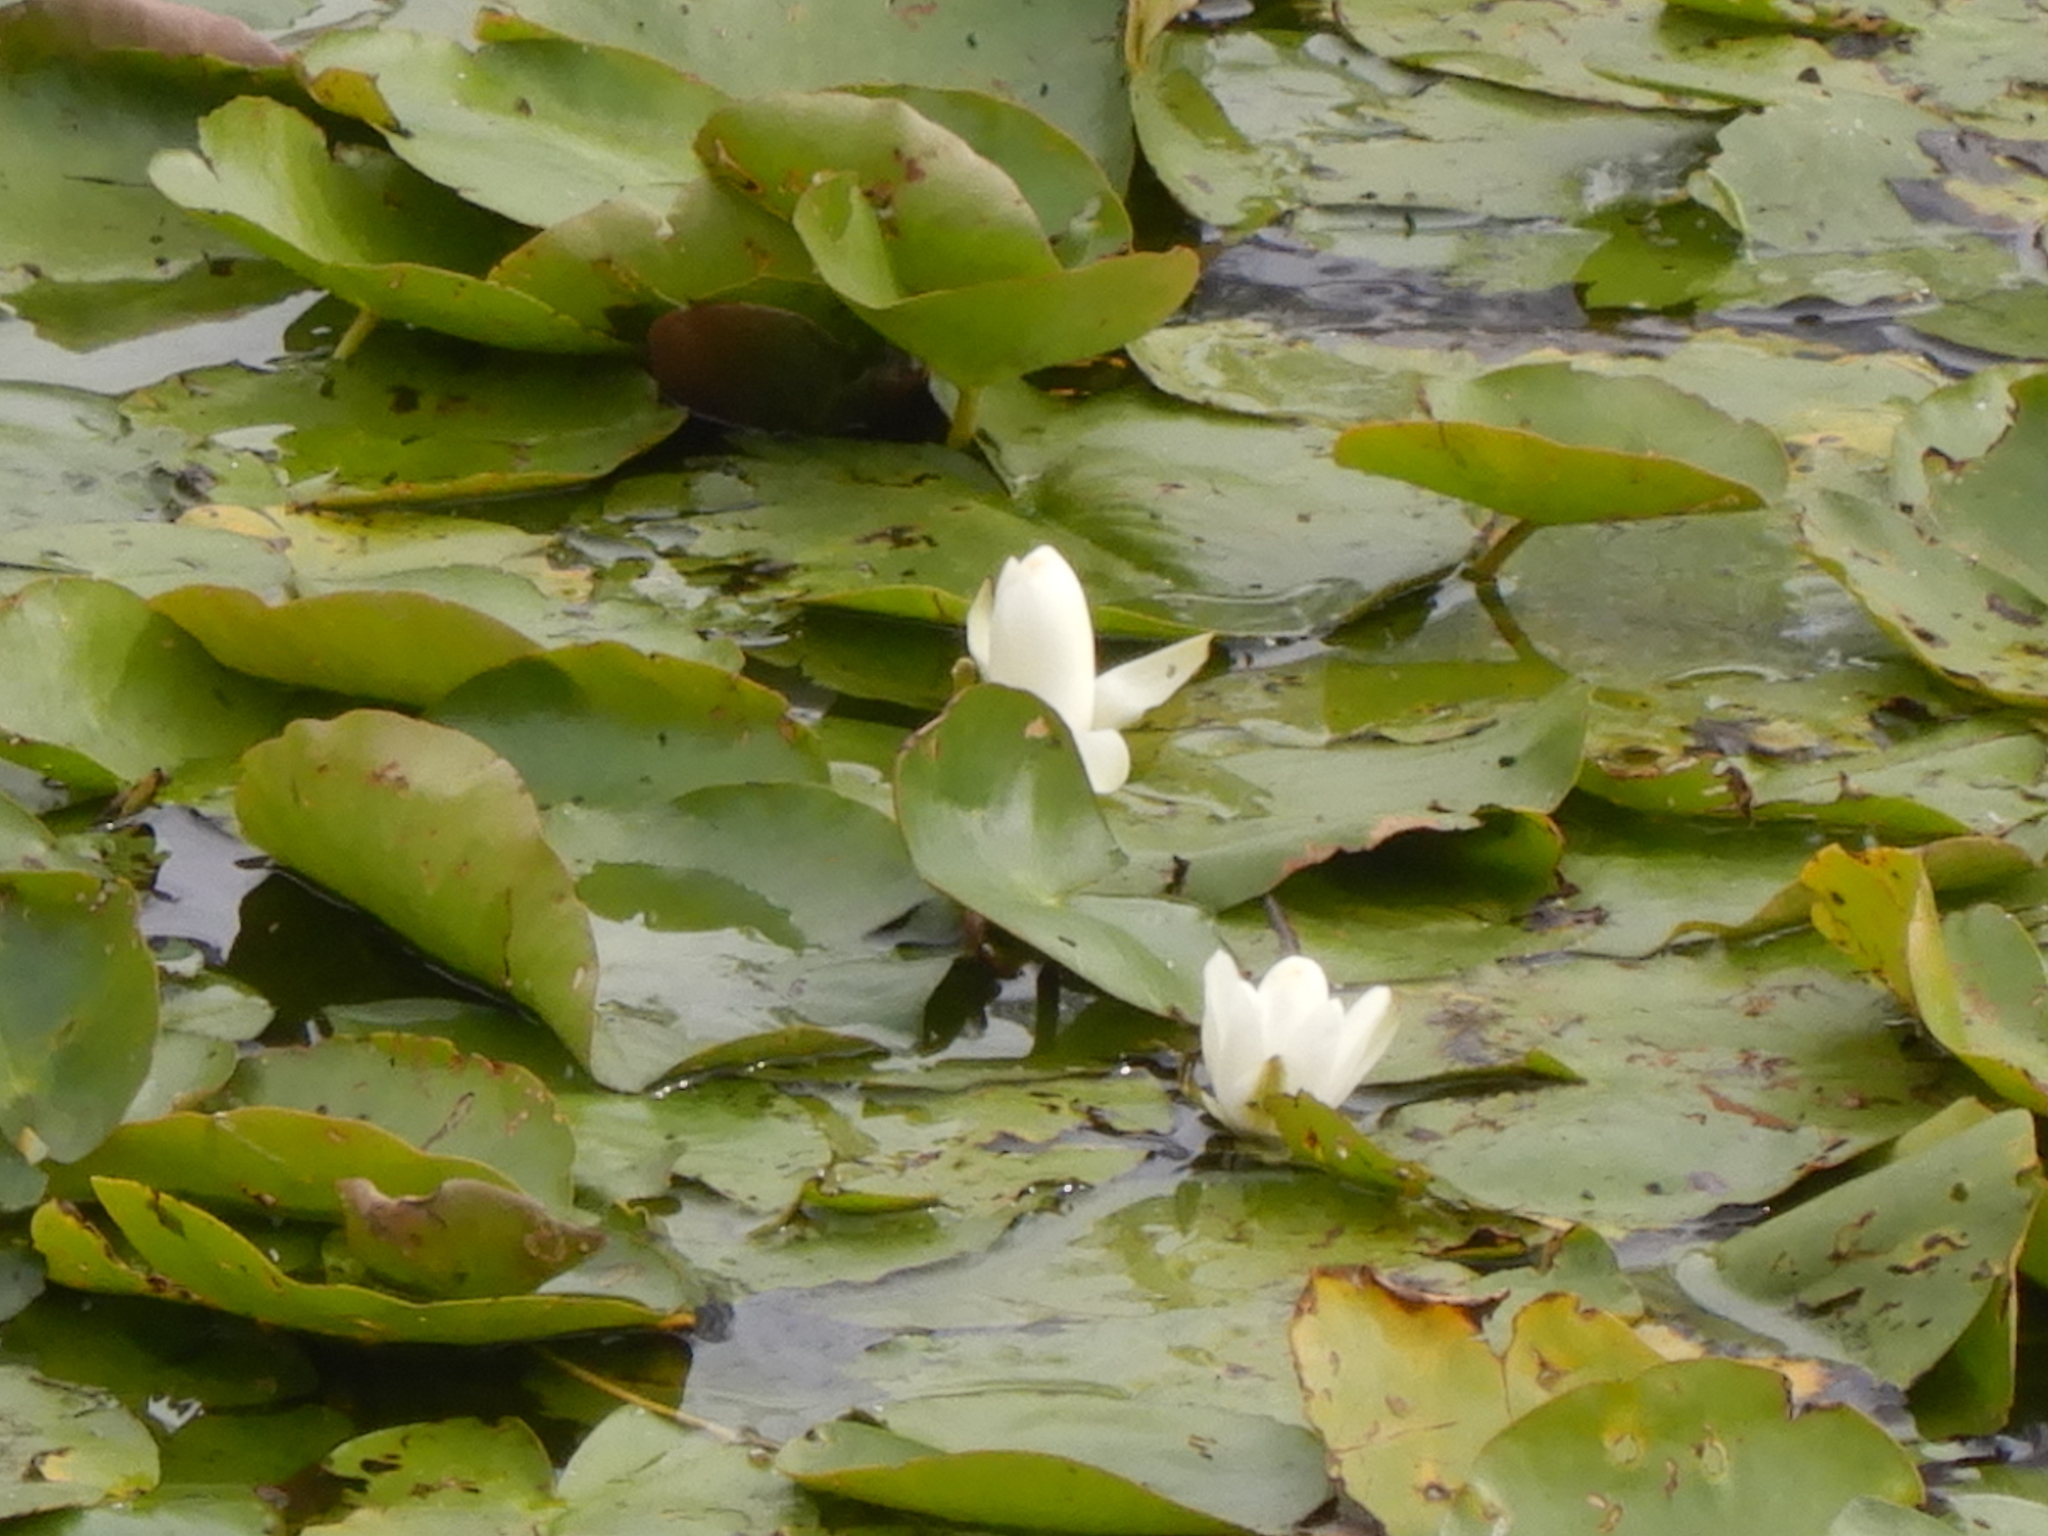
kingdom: Plantae
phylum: Tracheophyta
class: Magnoliopsida
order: Nymphaeales
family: Nymphaeaceae
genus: Nymphaea
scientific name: Nymphaea alba
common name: White water-lily
